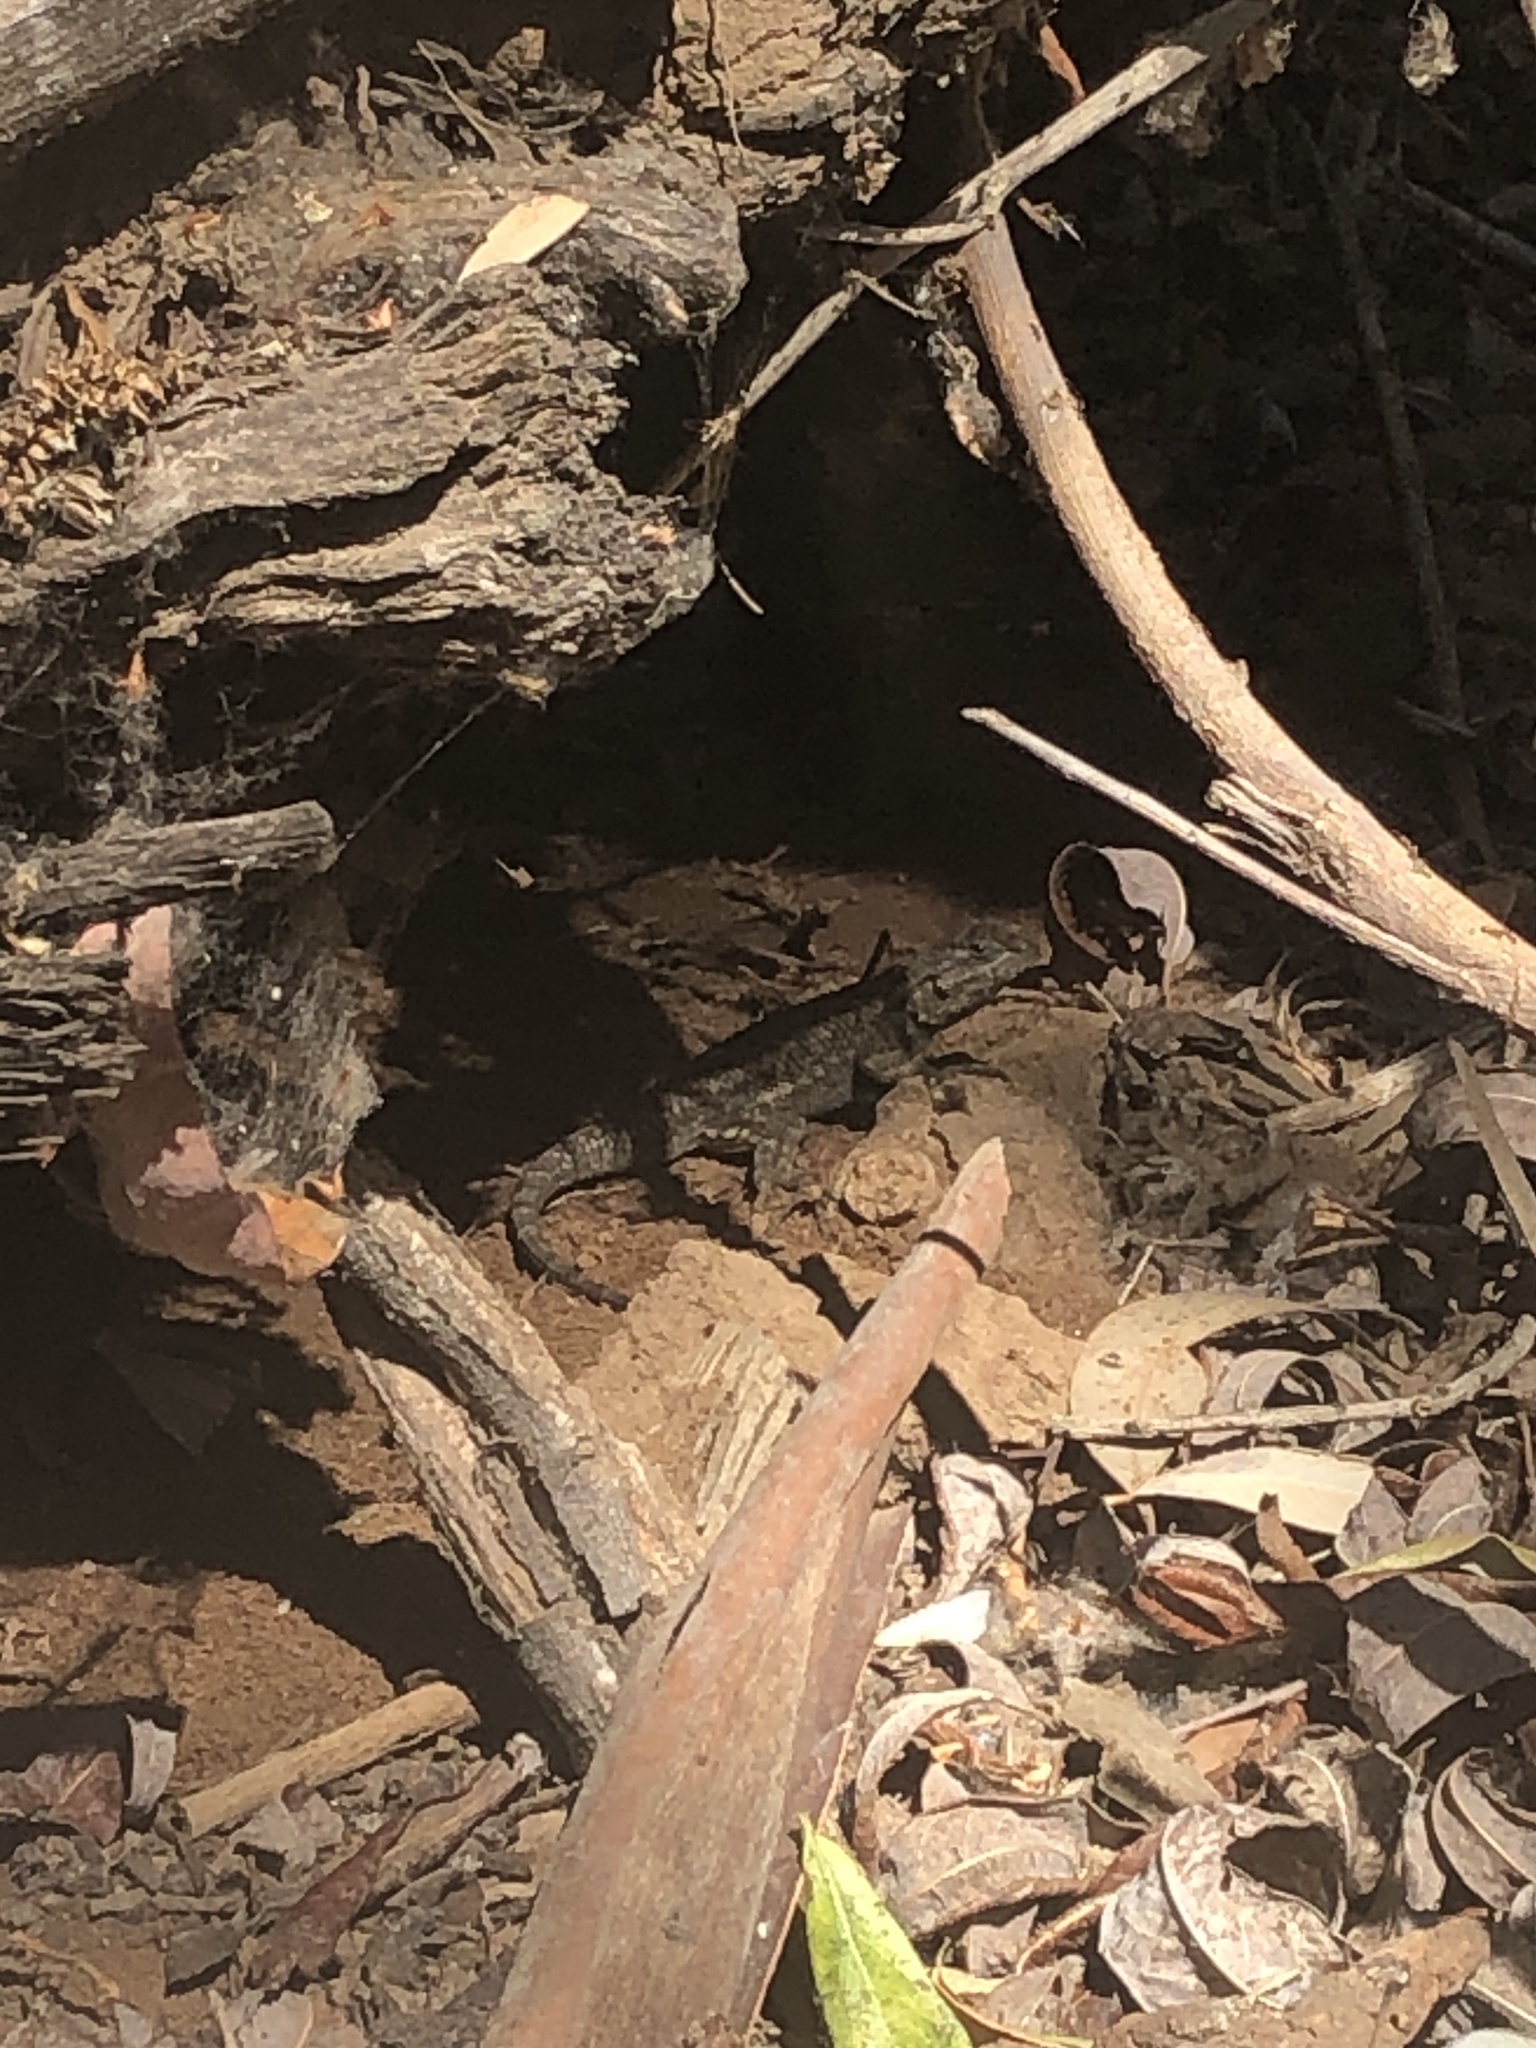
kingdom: Animalia
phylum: Chordata
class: Squamata
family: Phrynosomatidae
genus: Sceloporus
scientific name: Sceloporus occidentalis
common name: Western fence lizard
